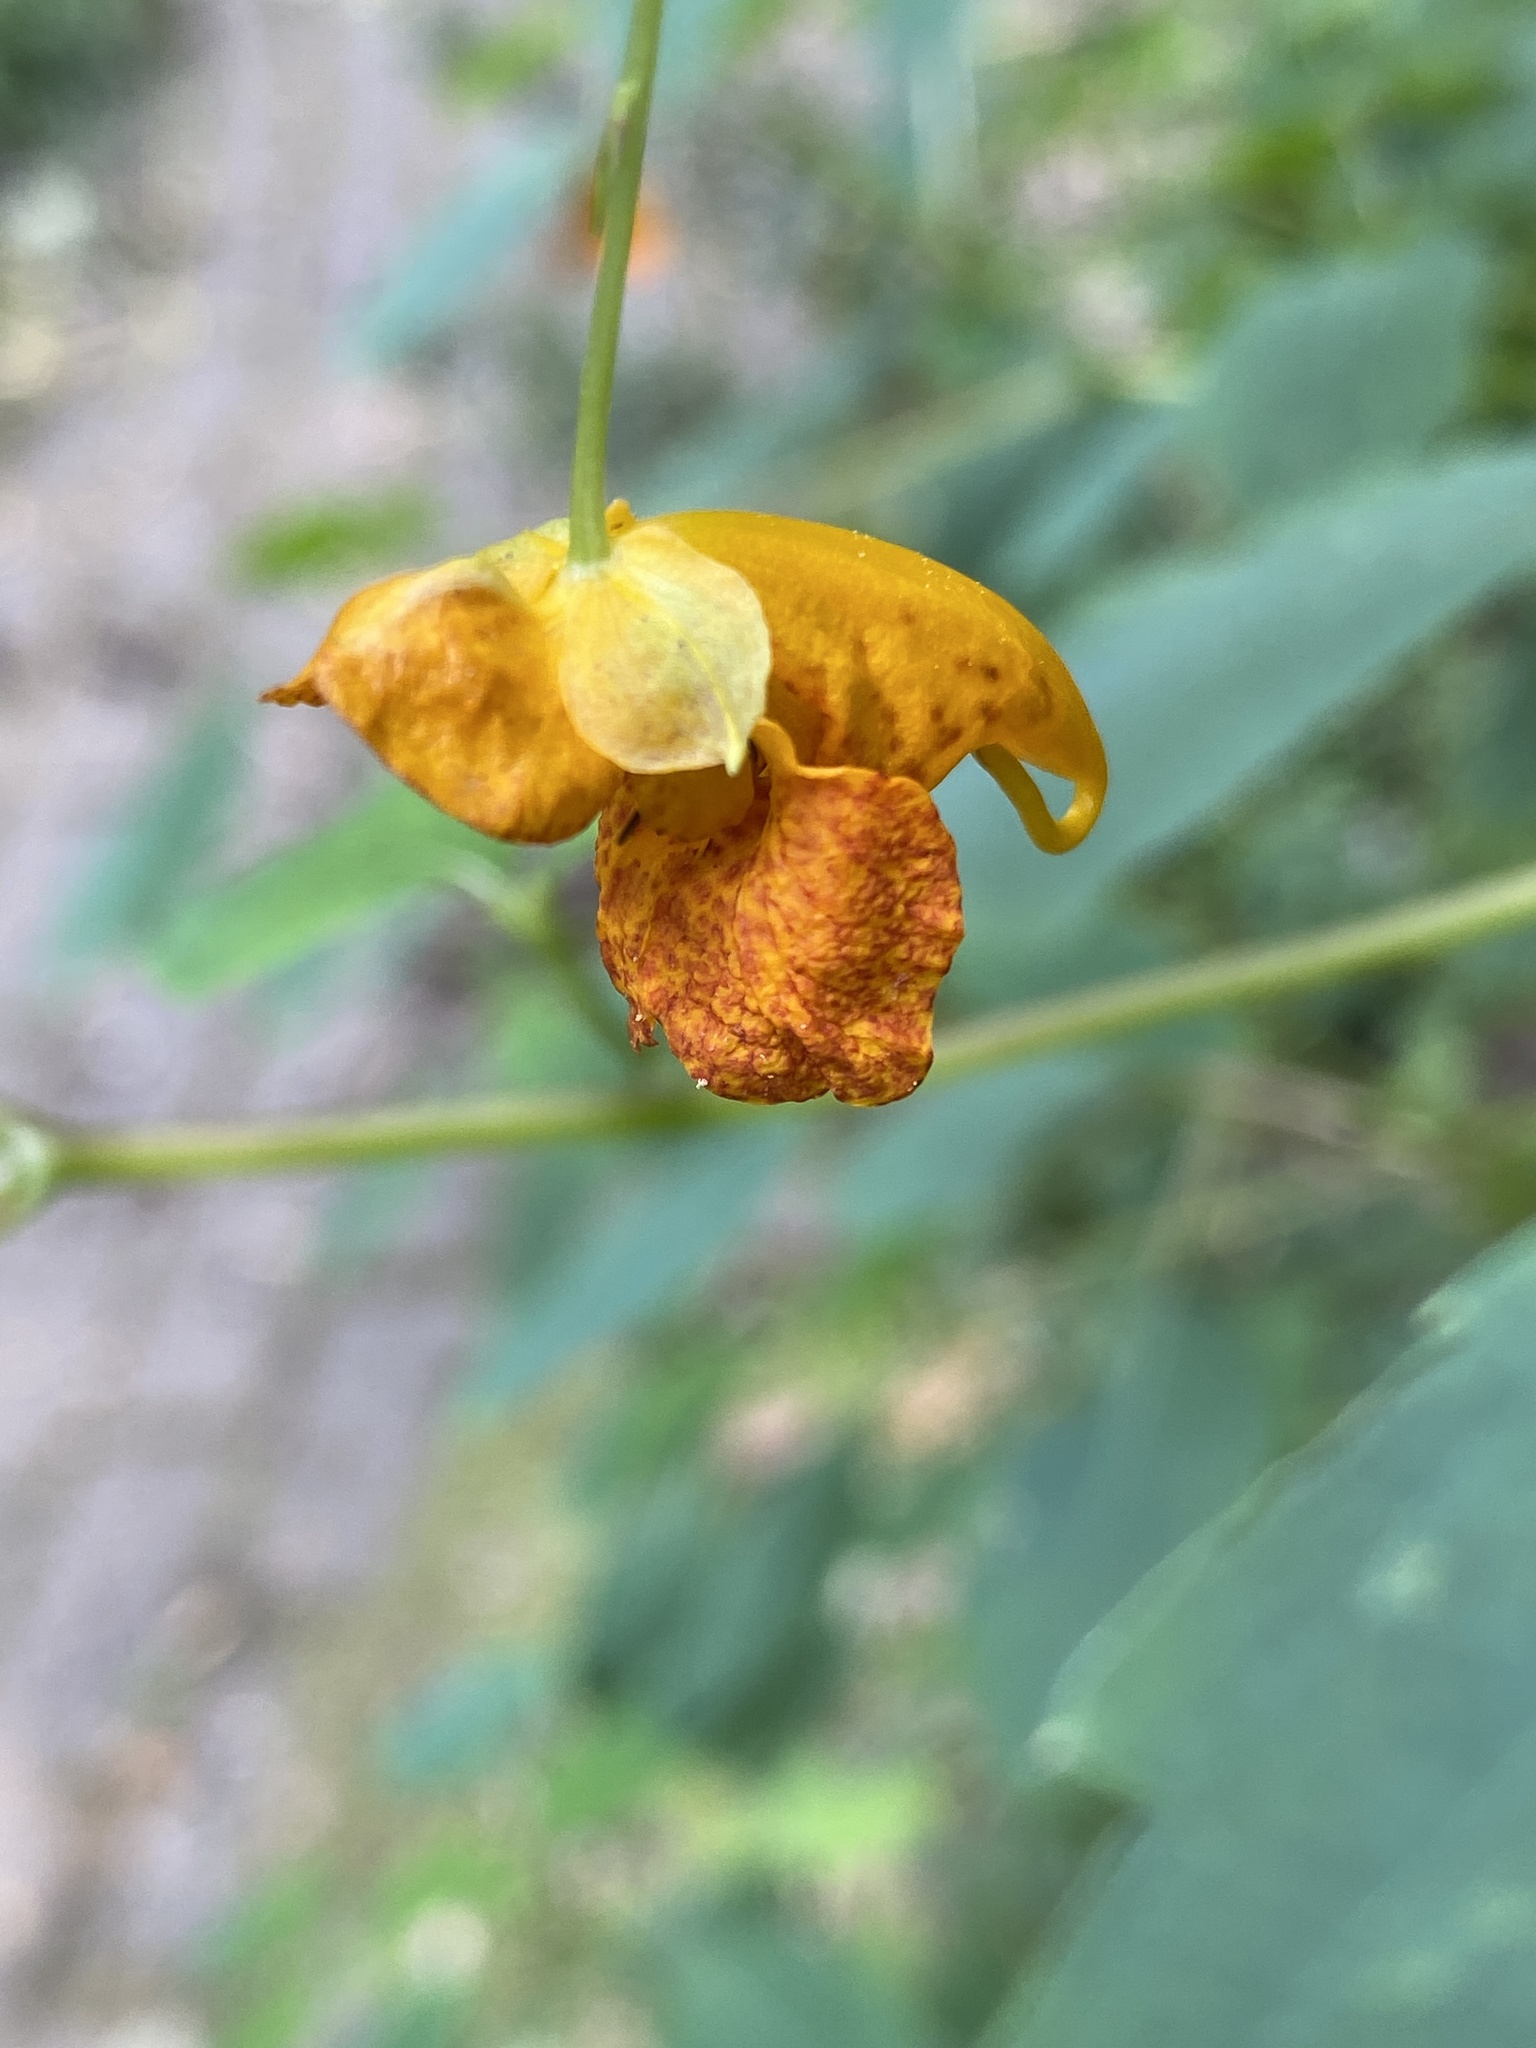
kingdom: Plantae
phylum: Tracheophyta
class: Magnoliopsida
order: Ericales
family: Balsaminaceae
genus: Impatiens
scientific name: Impatiens capensis
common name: Orange balsam
